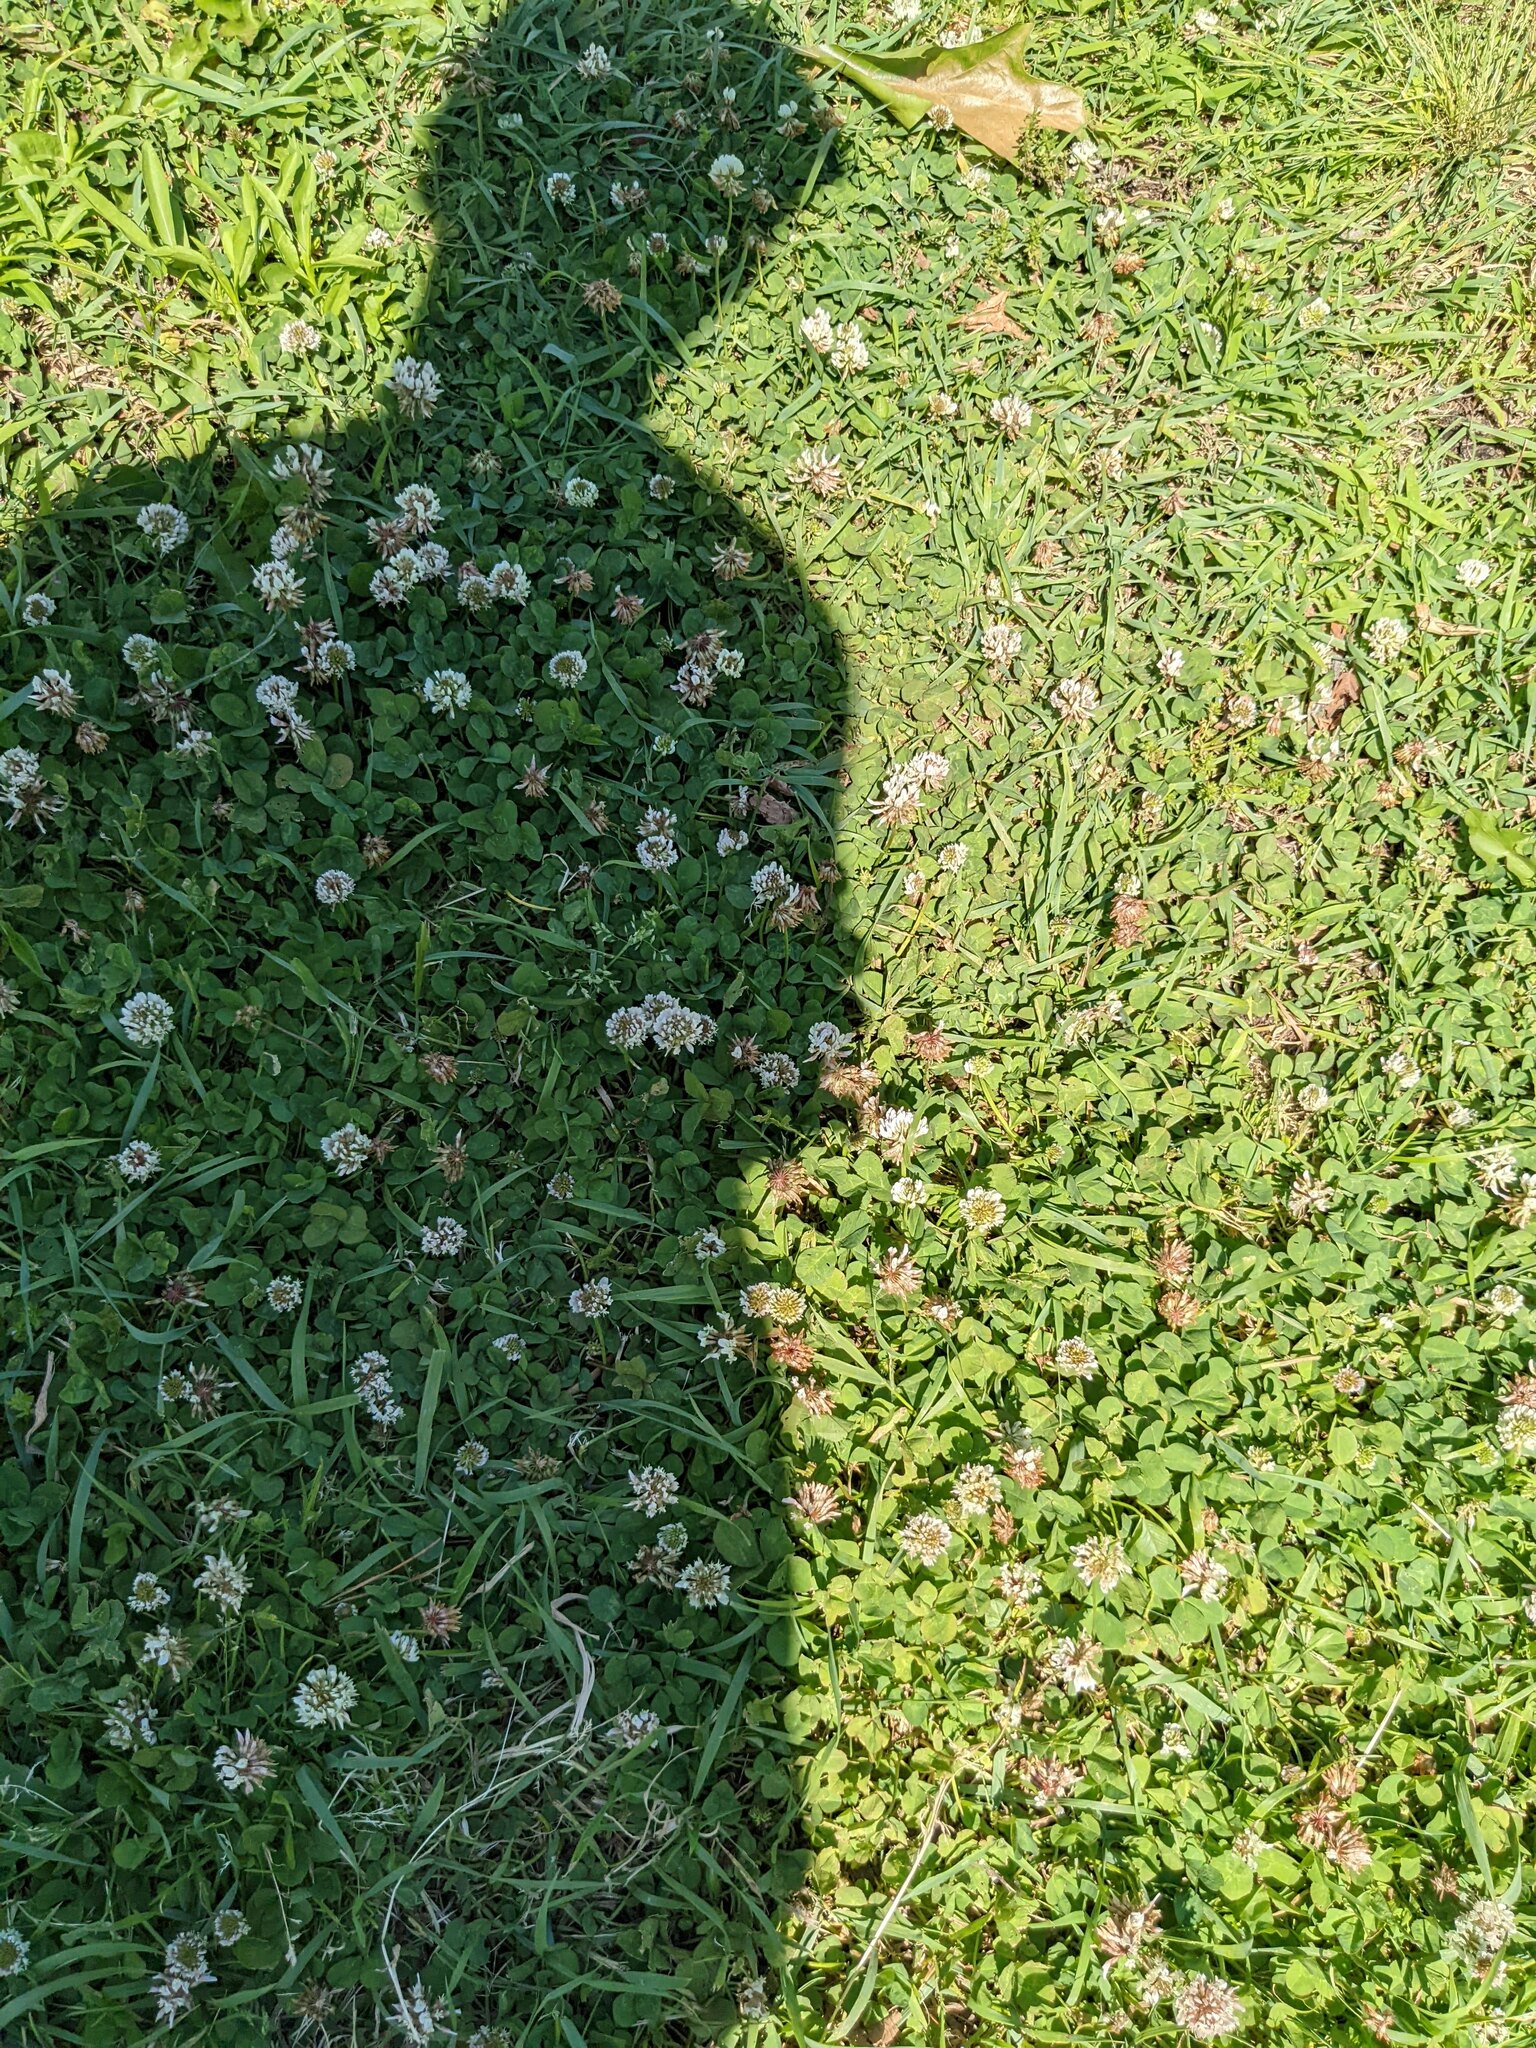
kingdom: Plantae
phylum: Tracheophyta
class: Magnoliopsida
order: Fabales
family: Fabaceae
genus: Trifolium
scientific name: Trifolium repens
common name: White clover
